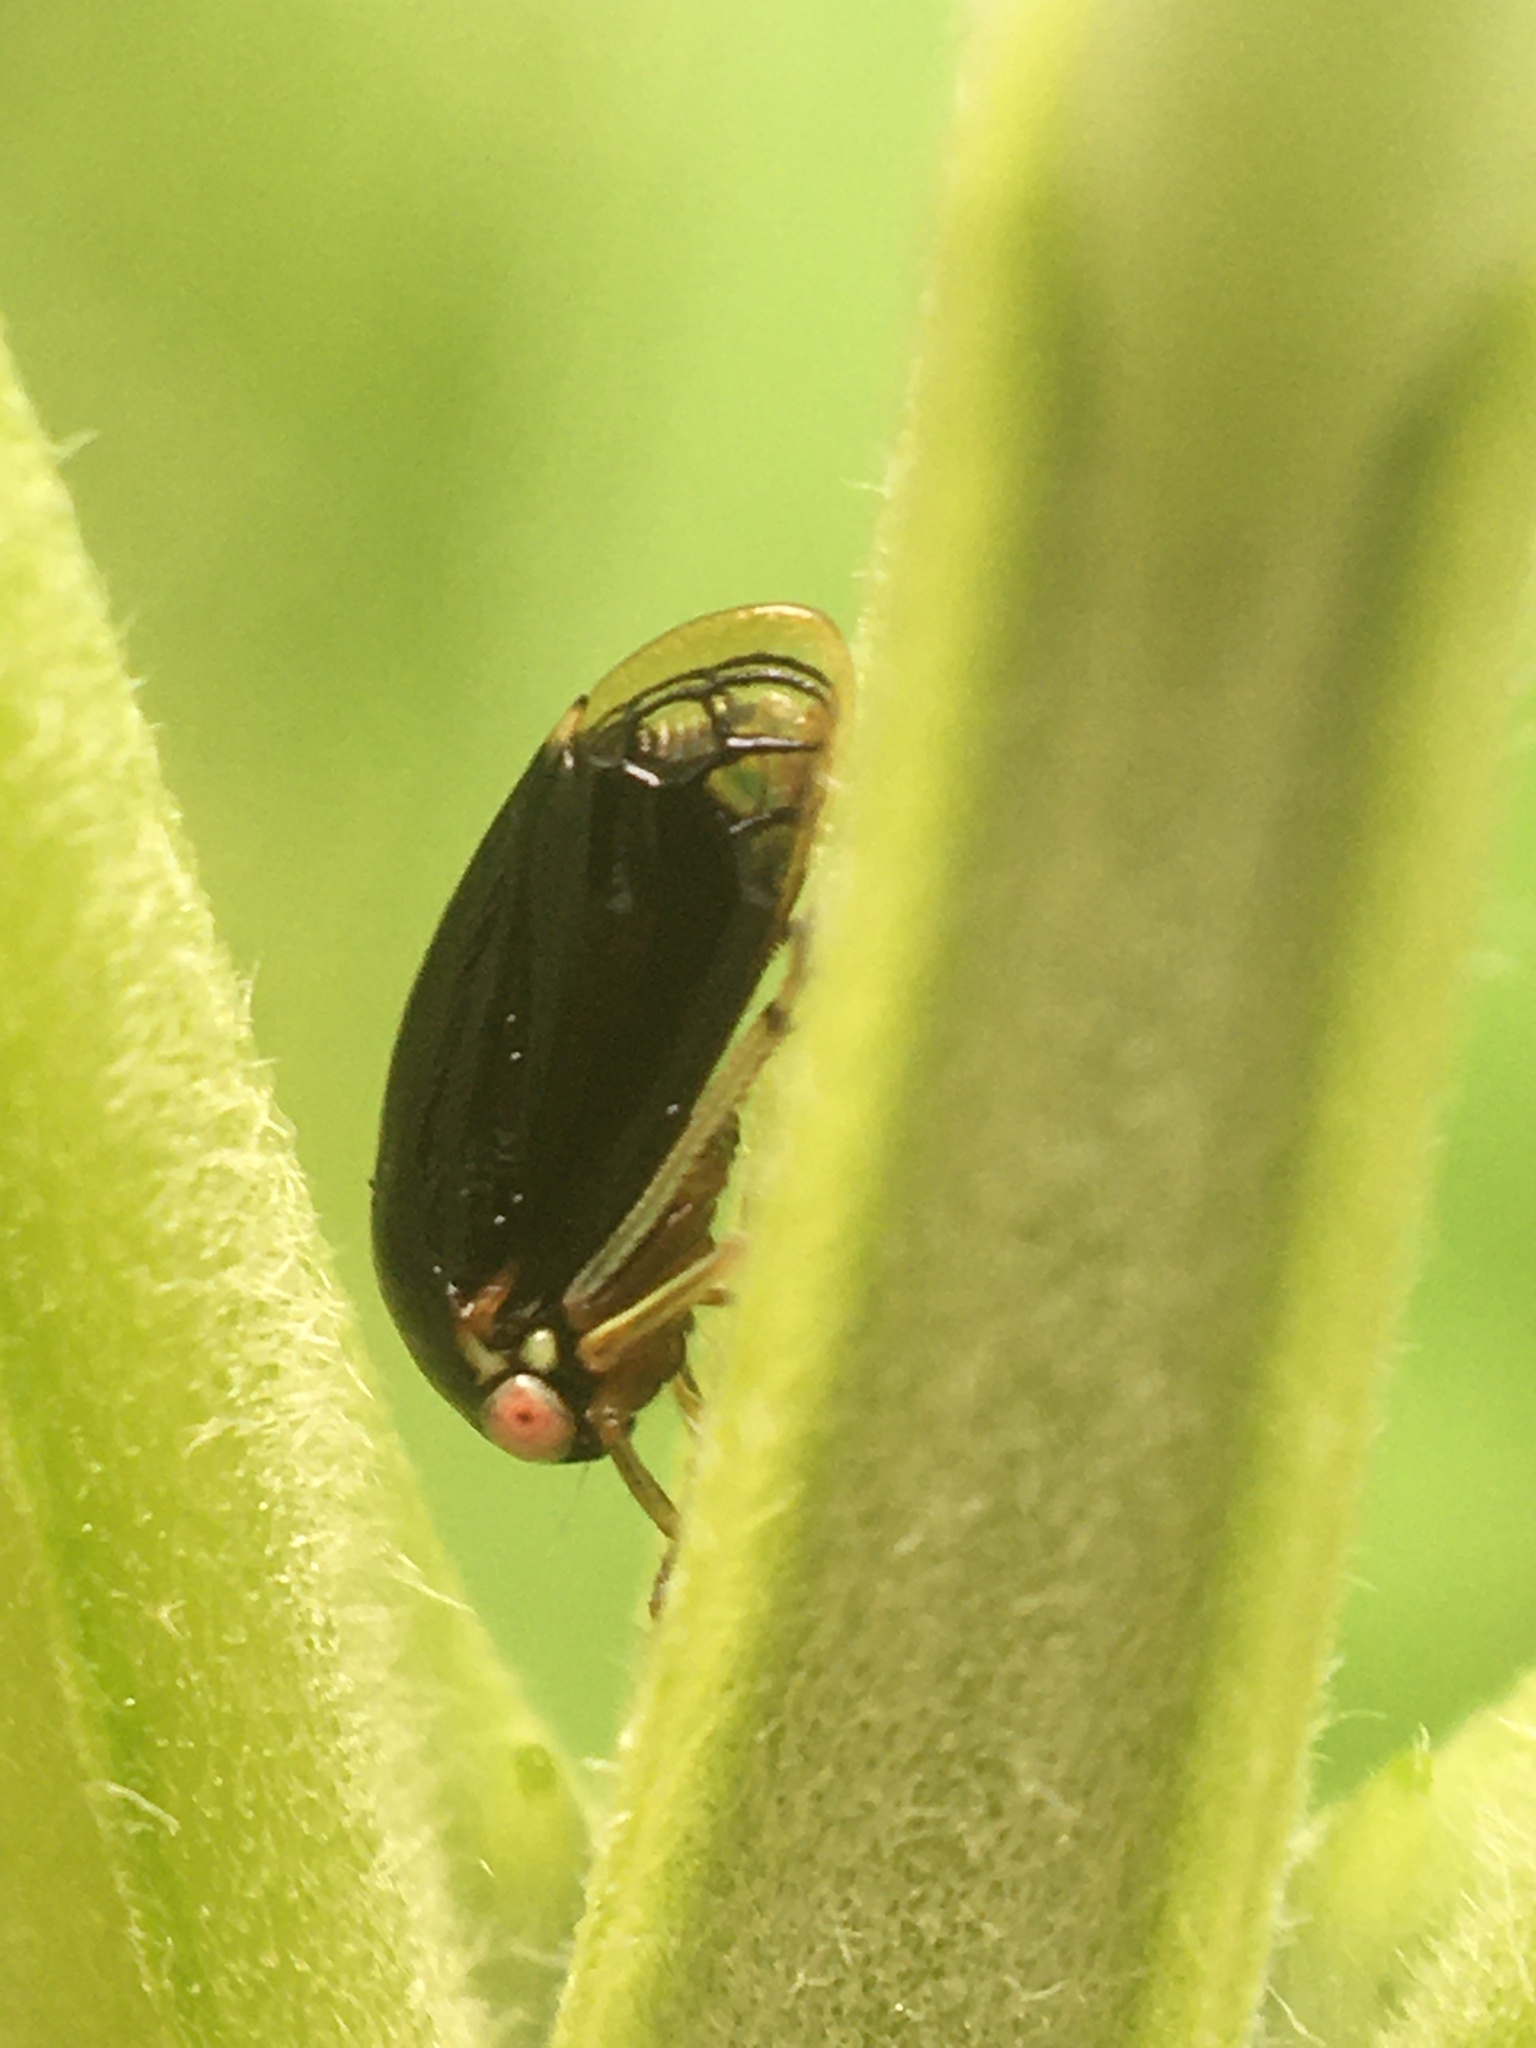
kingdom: Animalia
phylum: Arthropoda
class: Insecta
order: Hemiptera
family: Membracidae
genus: Acutalis
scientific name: Acutalis tartarea
